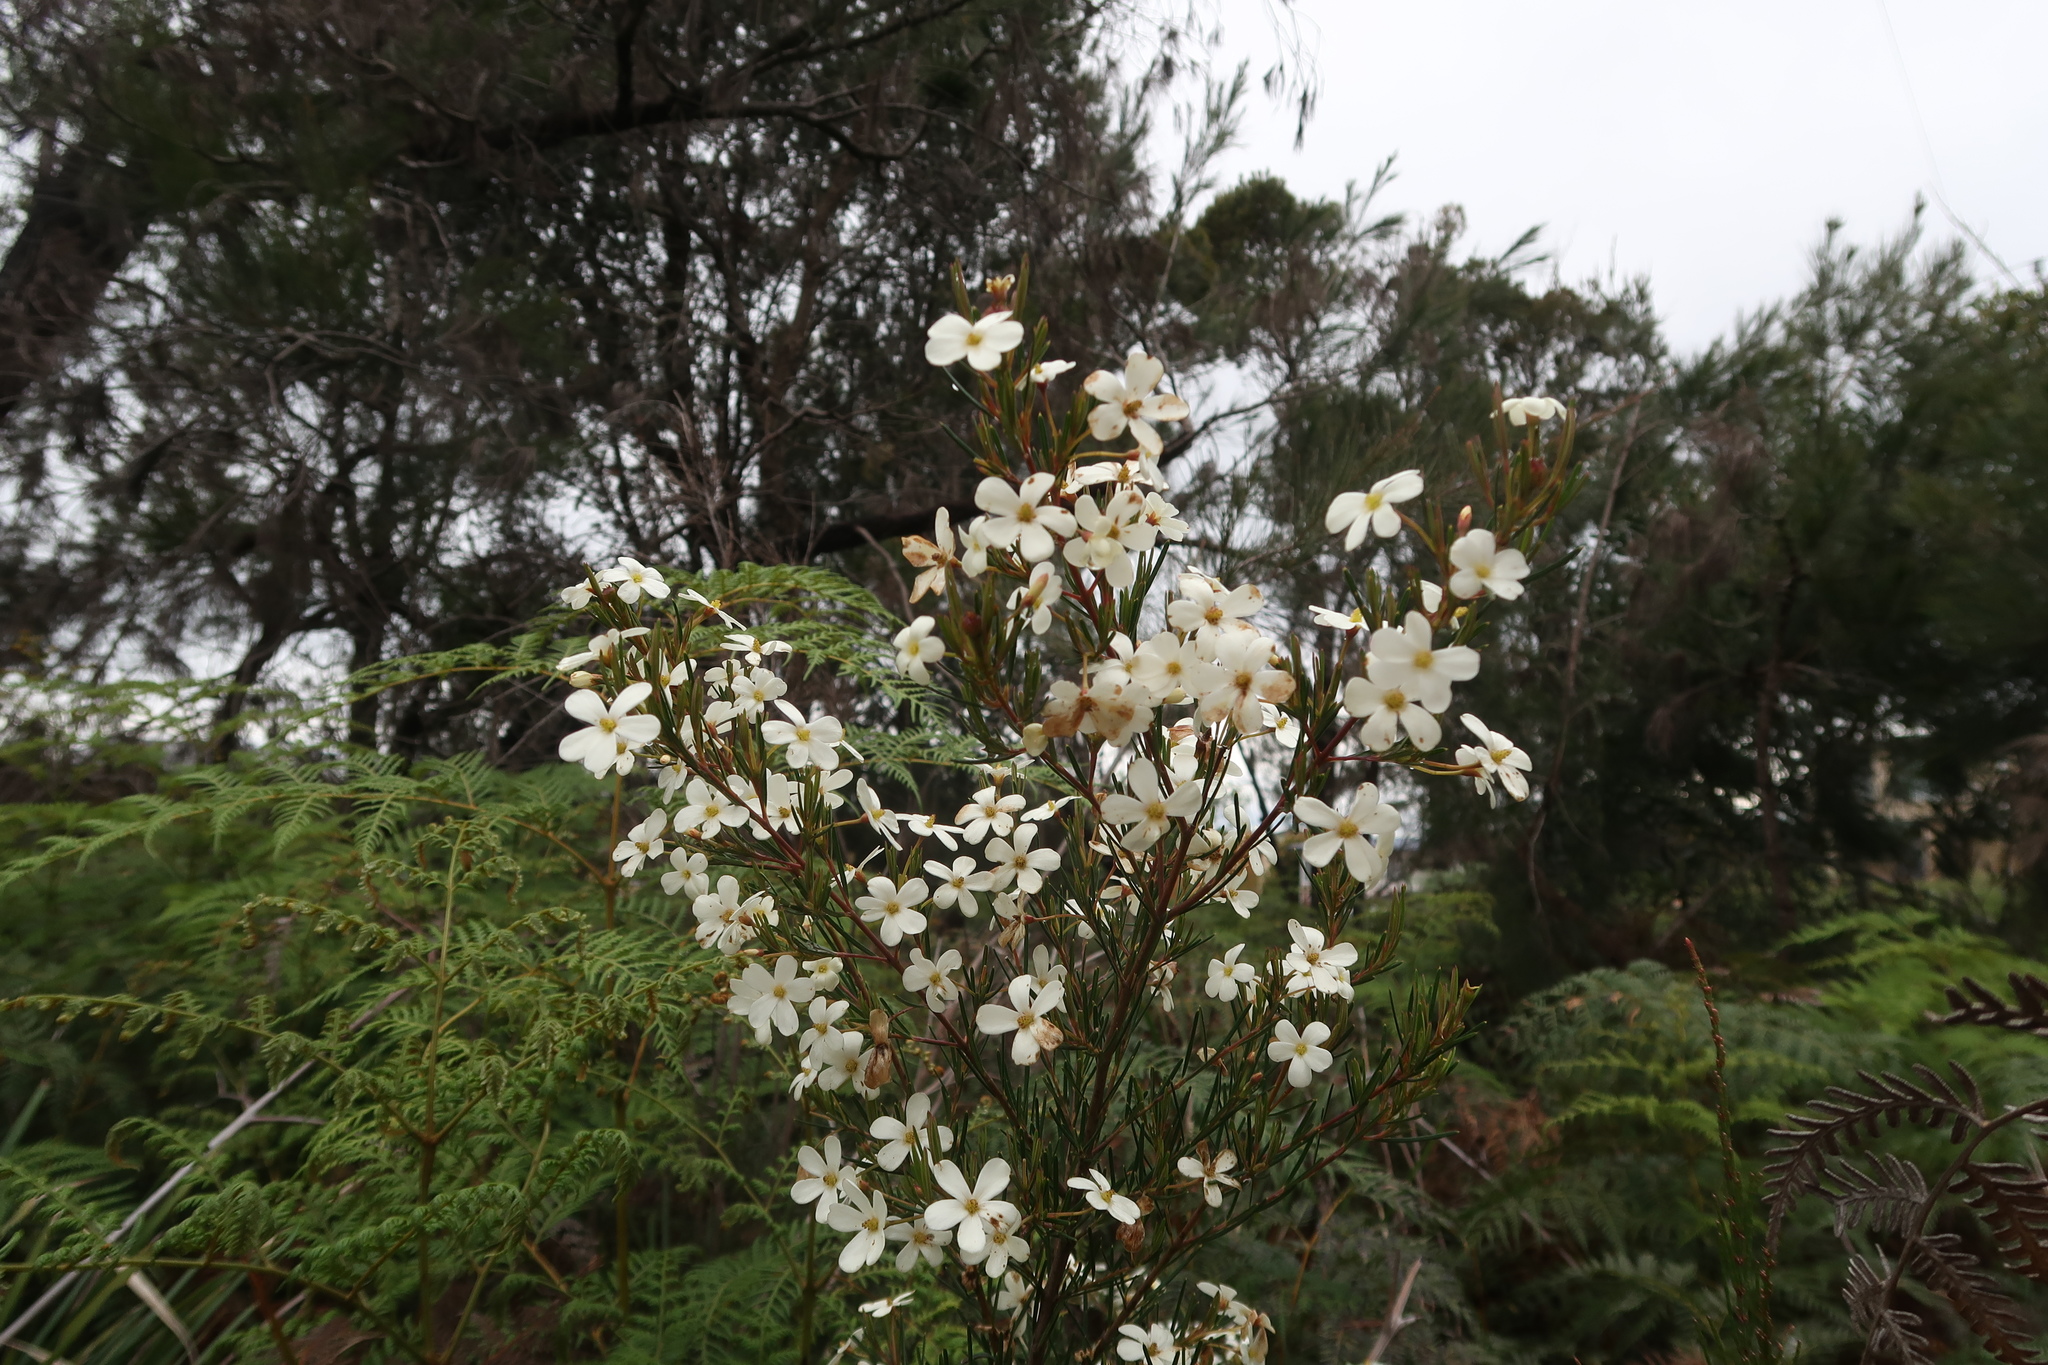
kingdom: Plantae
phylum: Tracheophyta
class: Magnoliopsida
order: Malpighiales
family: Euphorbiaceae
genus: Ricinocarpos
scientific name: Ricinocarpos pinifolius
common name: Weddingbush
